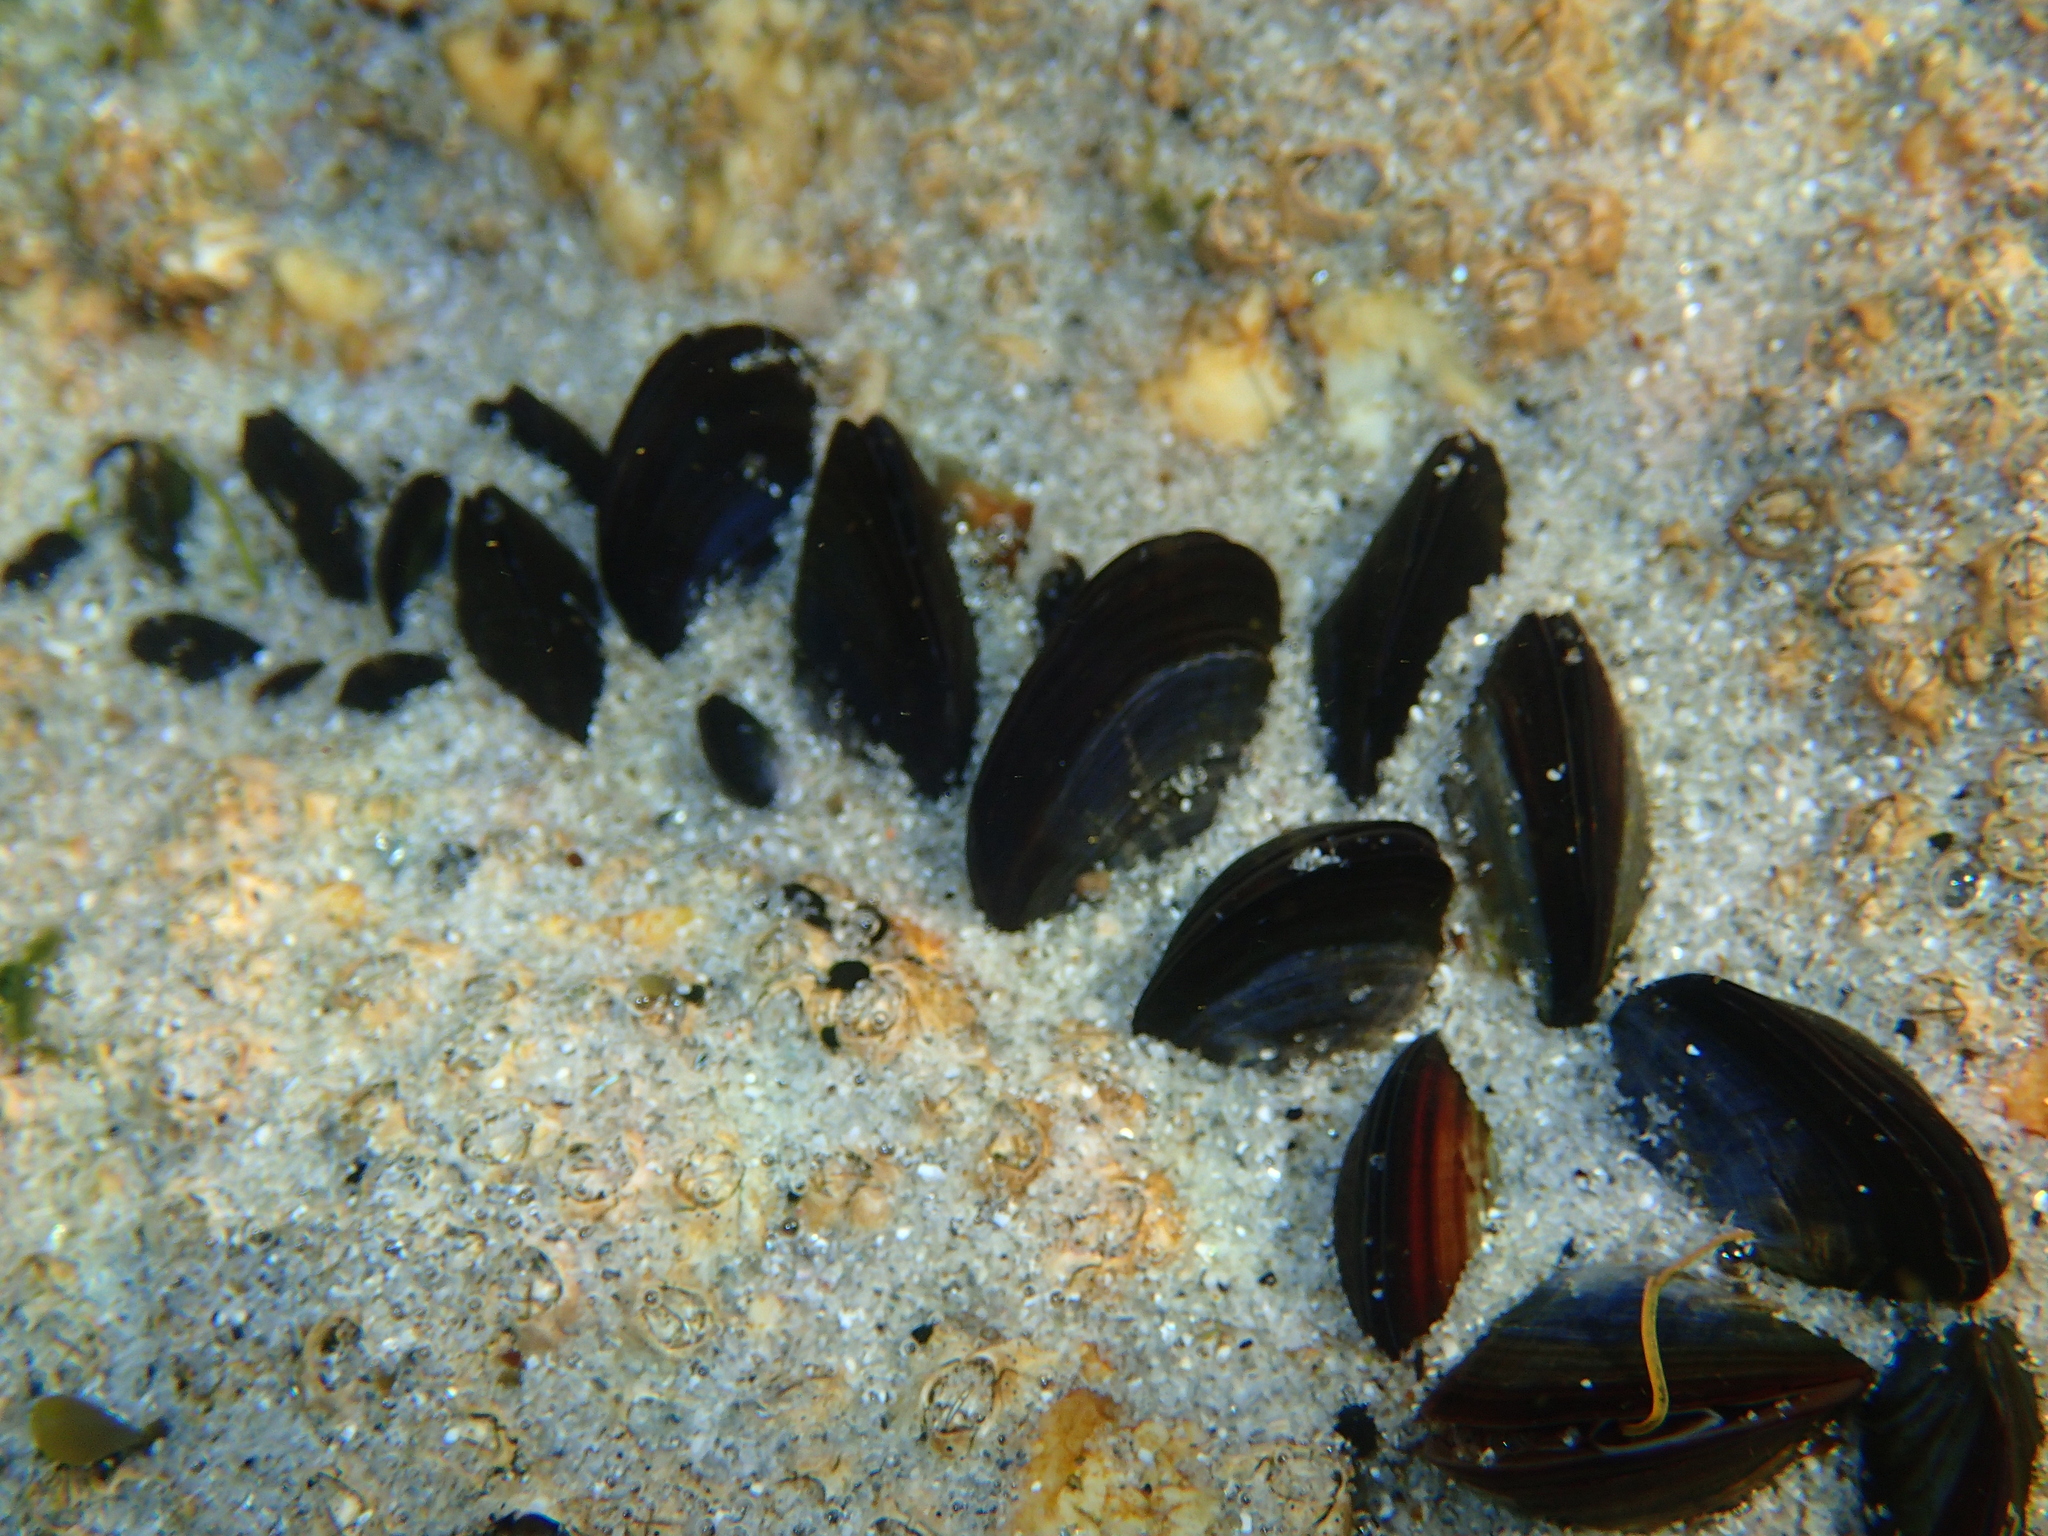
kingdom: Animalia
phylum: Mollusca
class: Bivalvia
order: Mytilida
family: Mytilidae
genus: Mytilus
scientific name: Mytilus edulis
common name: Blue mussel
